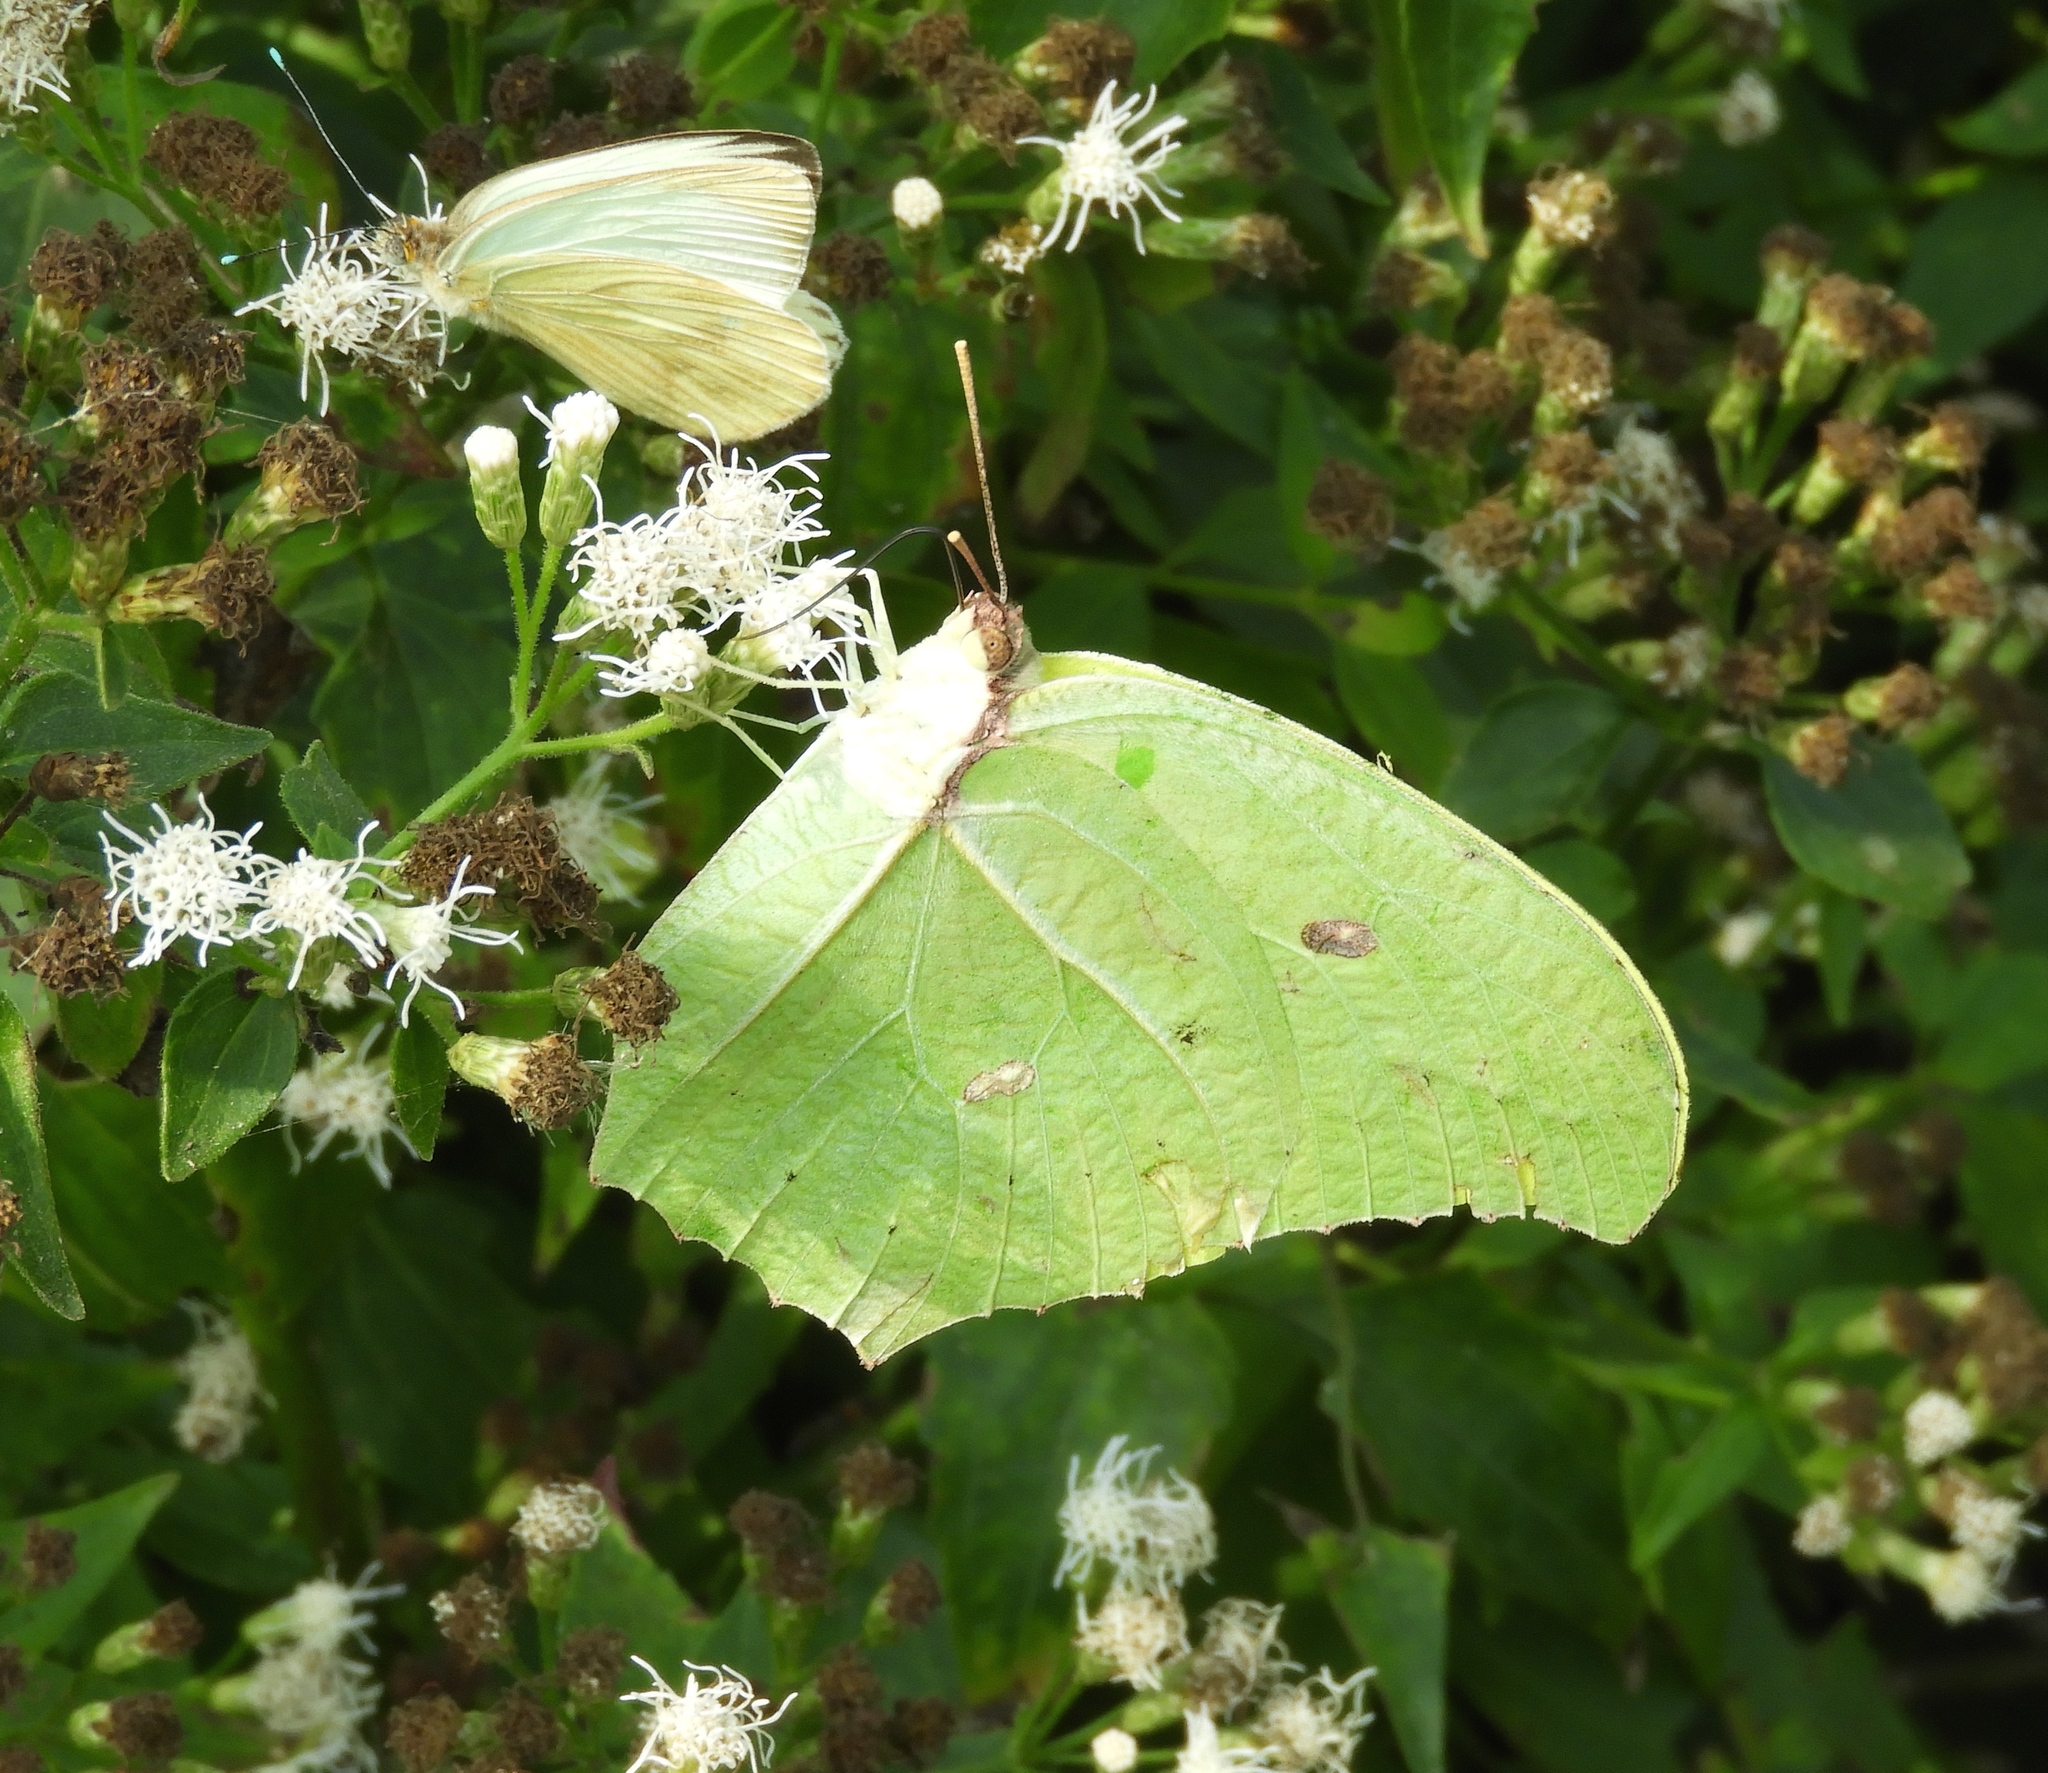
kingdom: Animalia
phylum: Arthropoda
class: Insecta
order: Lepidoptera
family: Pieridae
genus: Anteos
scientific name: Anteos maerula
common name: Angled sulphur
